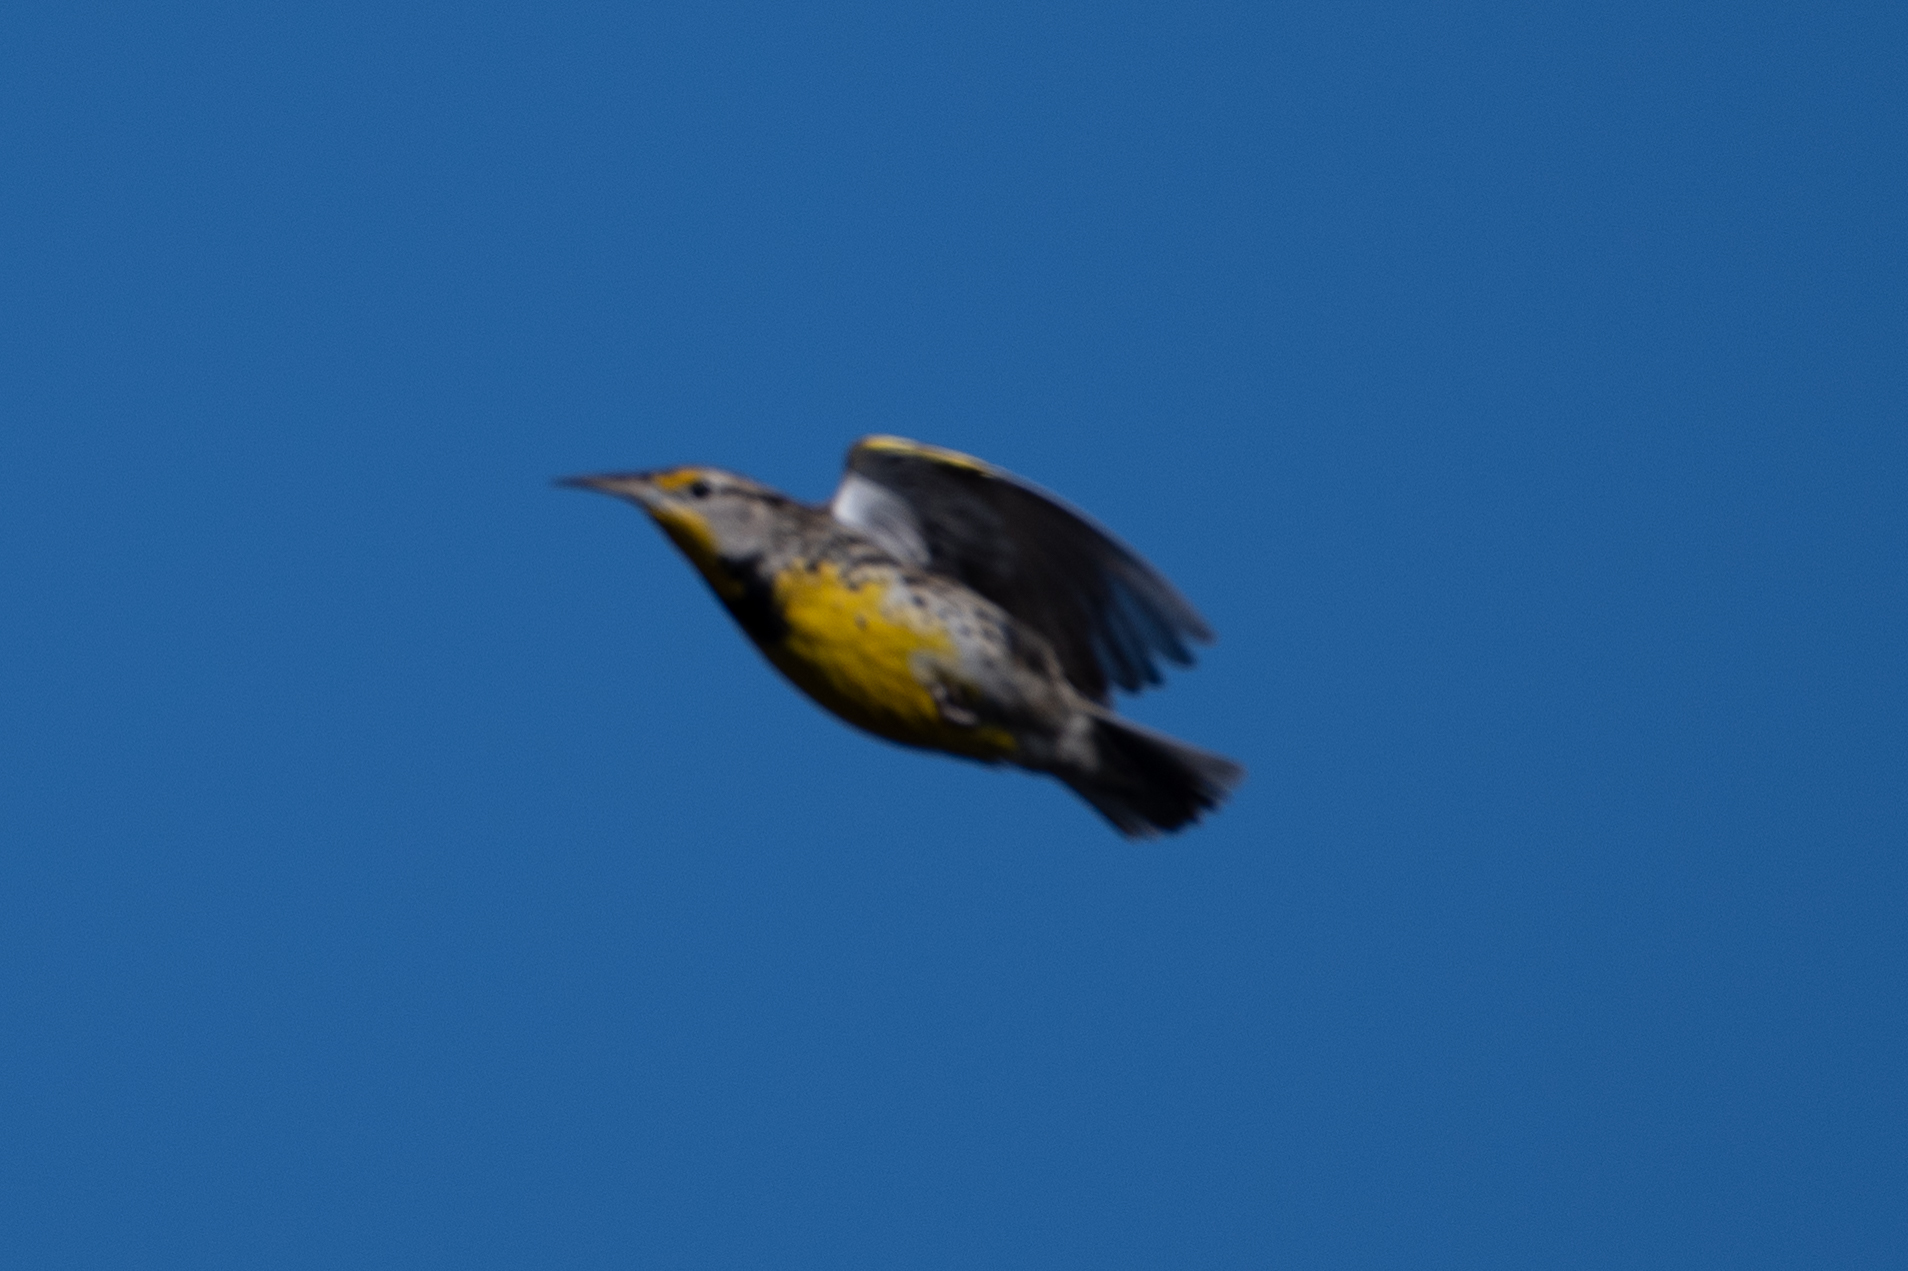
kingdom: Animalia
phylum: Chordata
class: Aves
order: Passeriformes
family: Icteridae
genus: Sturnella
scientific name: Sturnella neglecta
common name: Western meadowlark
